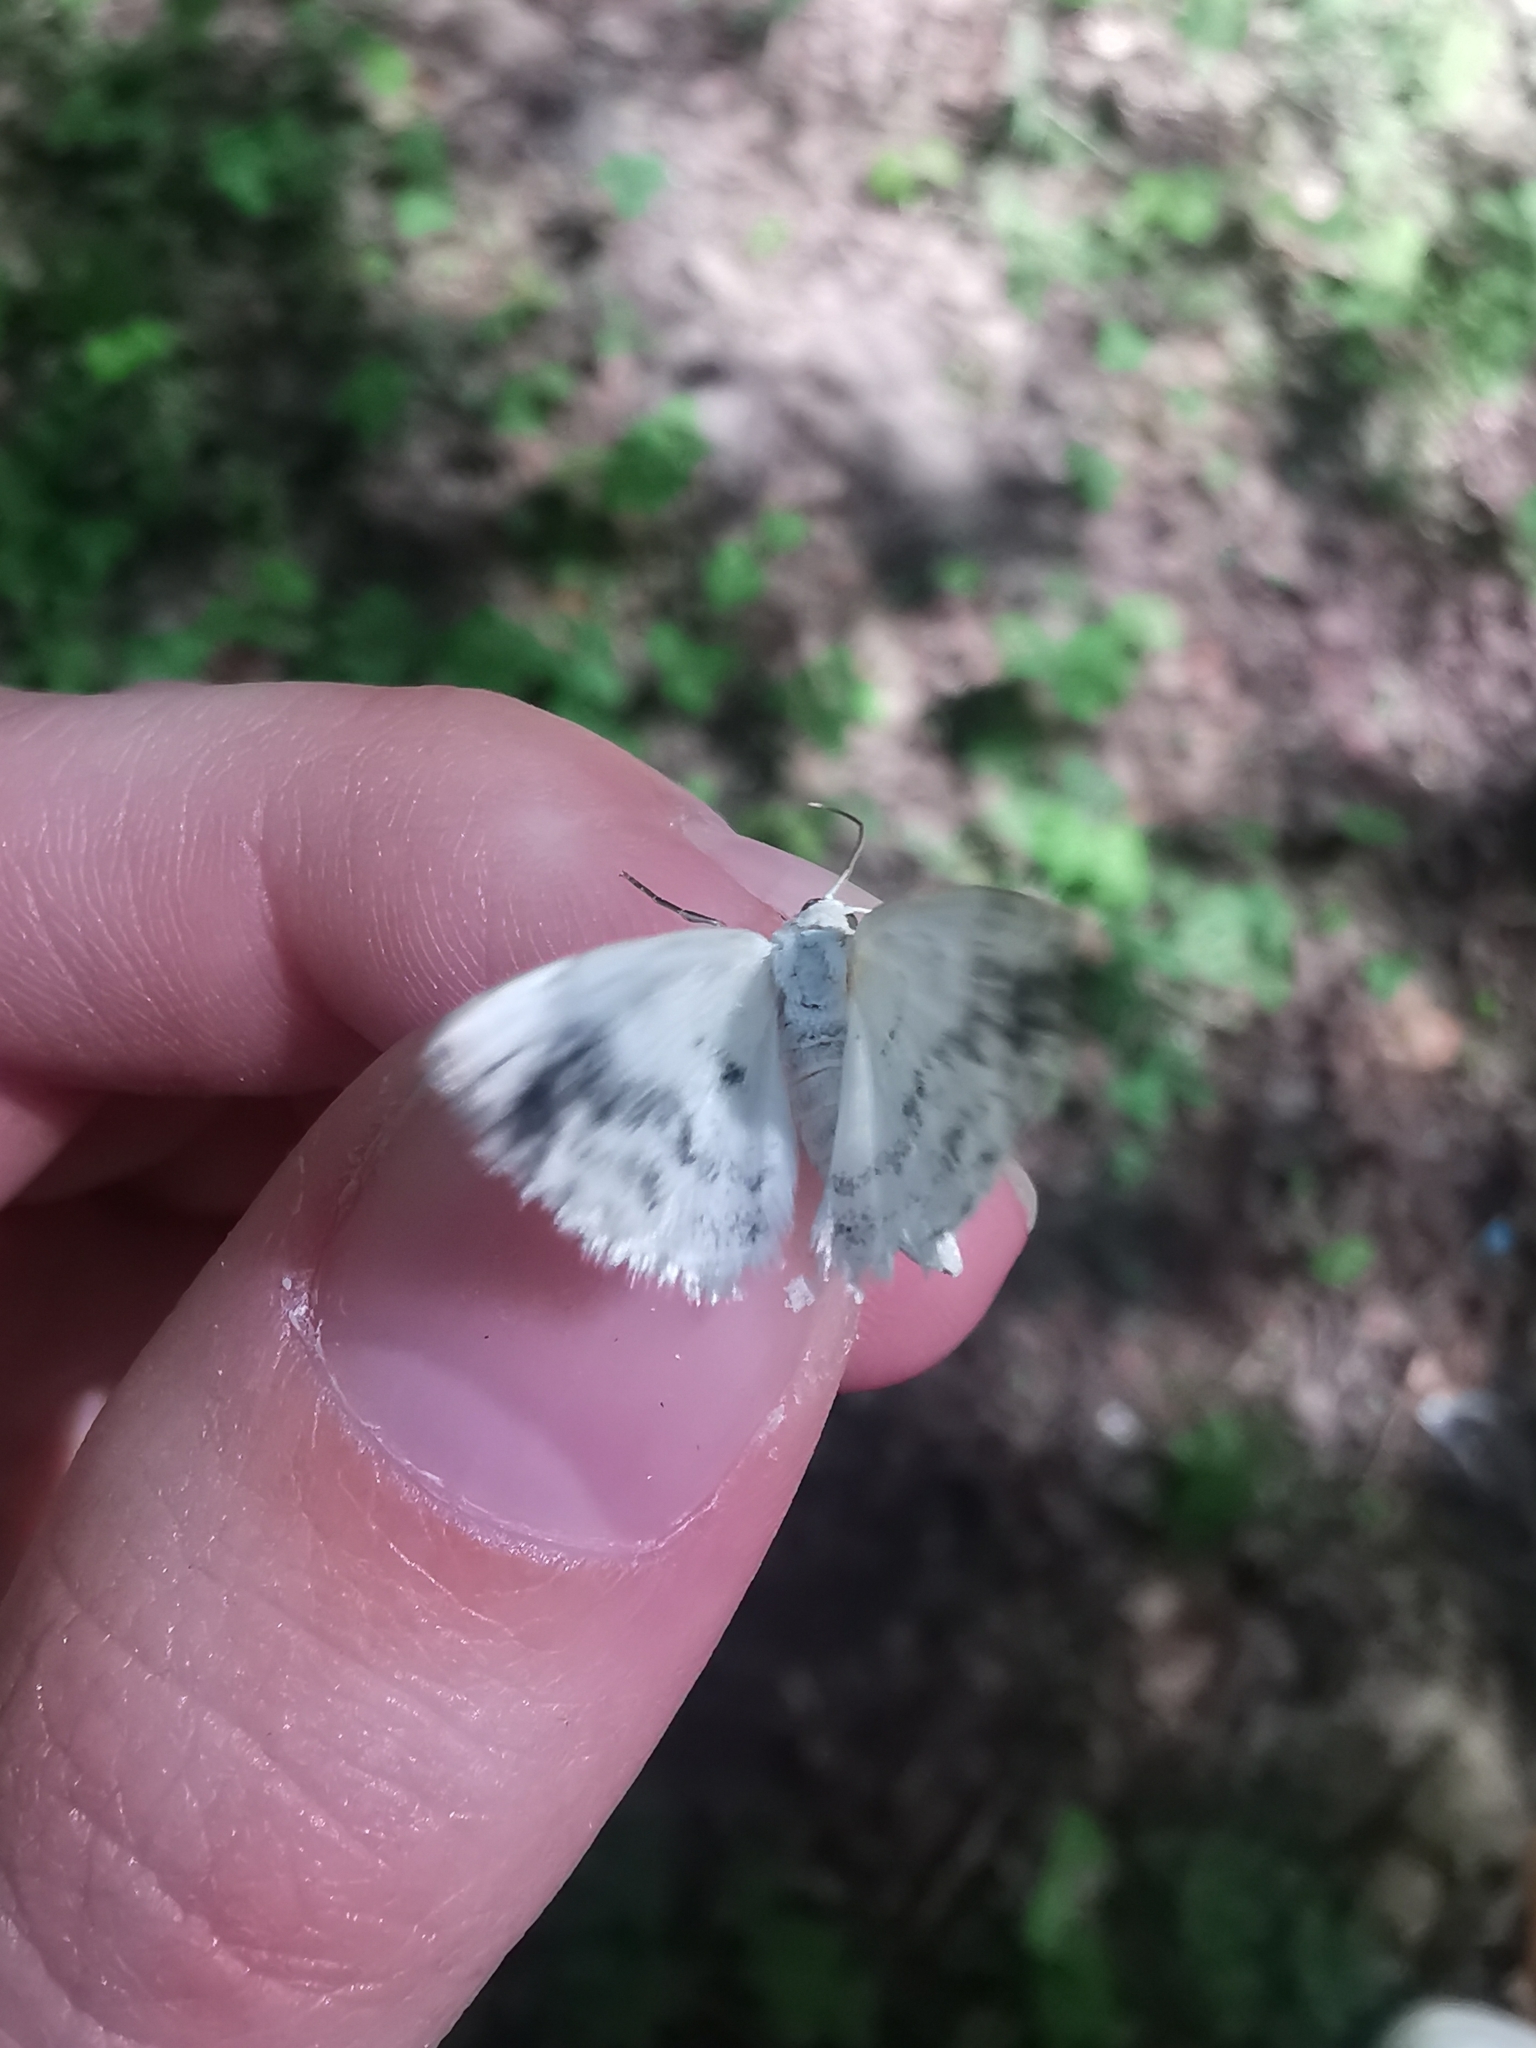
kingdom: Animalia
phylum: Arthropoda
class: Insecta
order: Lepidoptera
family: Geometridae
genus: Lomographa
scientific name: Lomographa temerata
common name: Clouded silver
